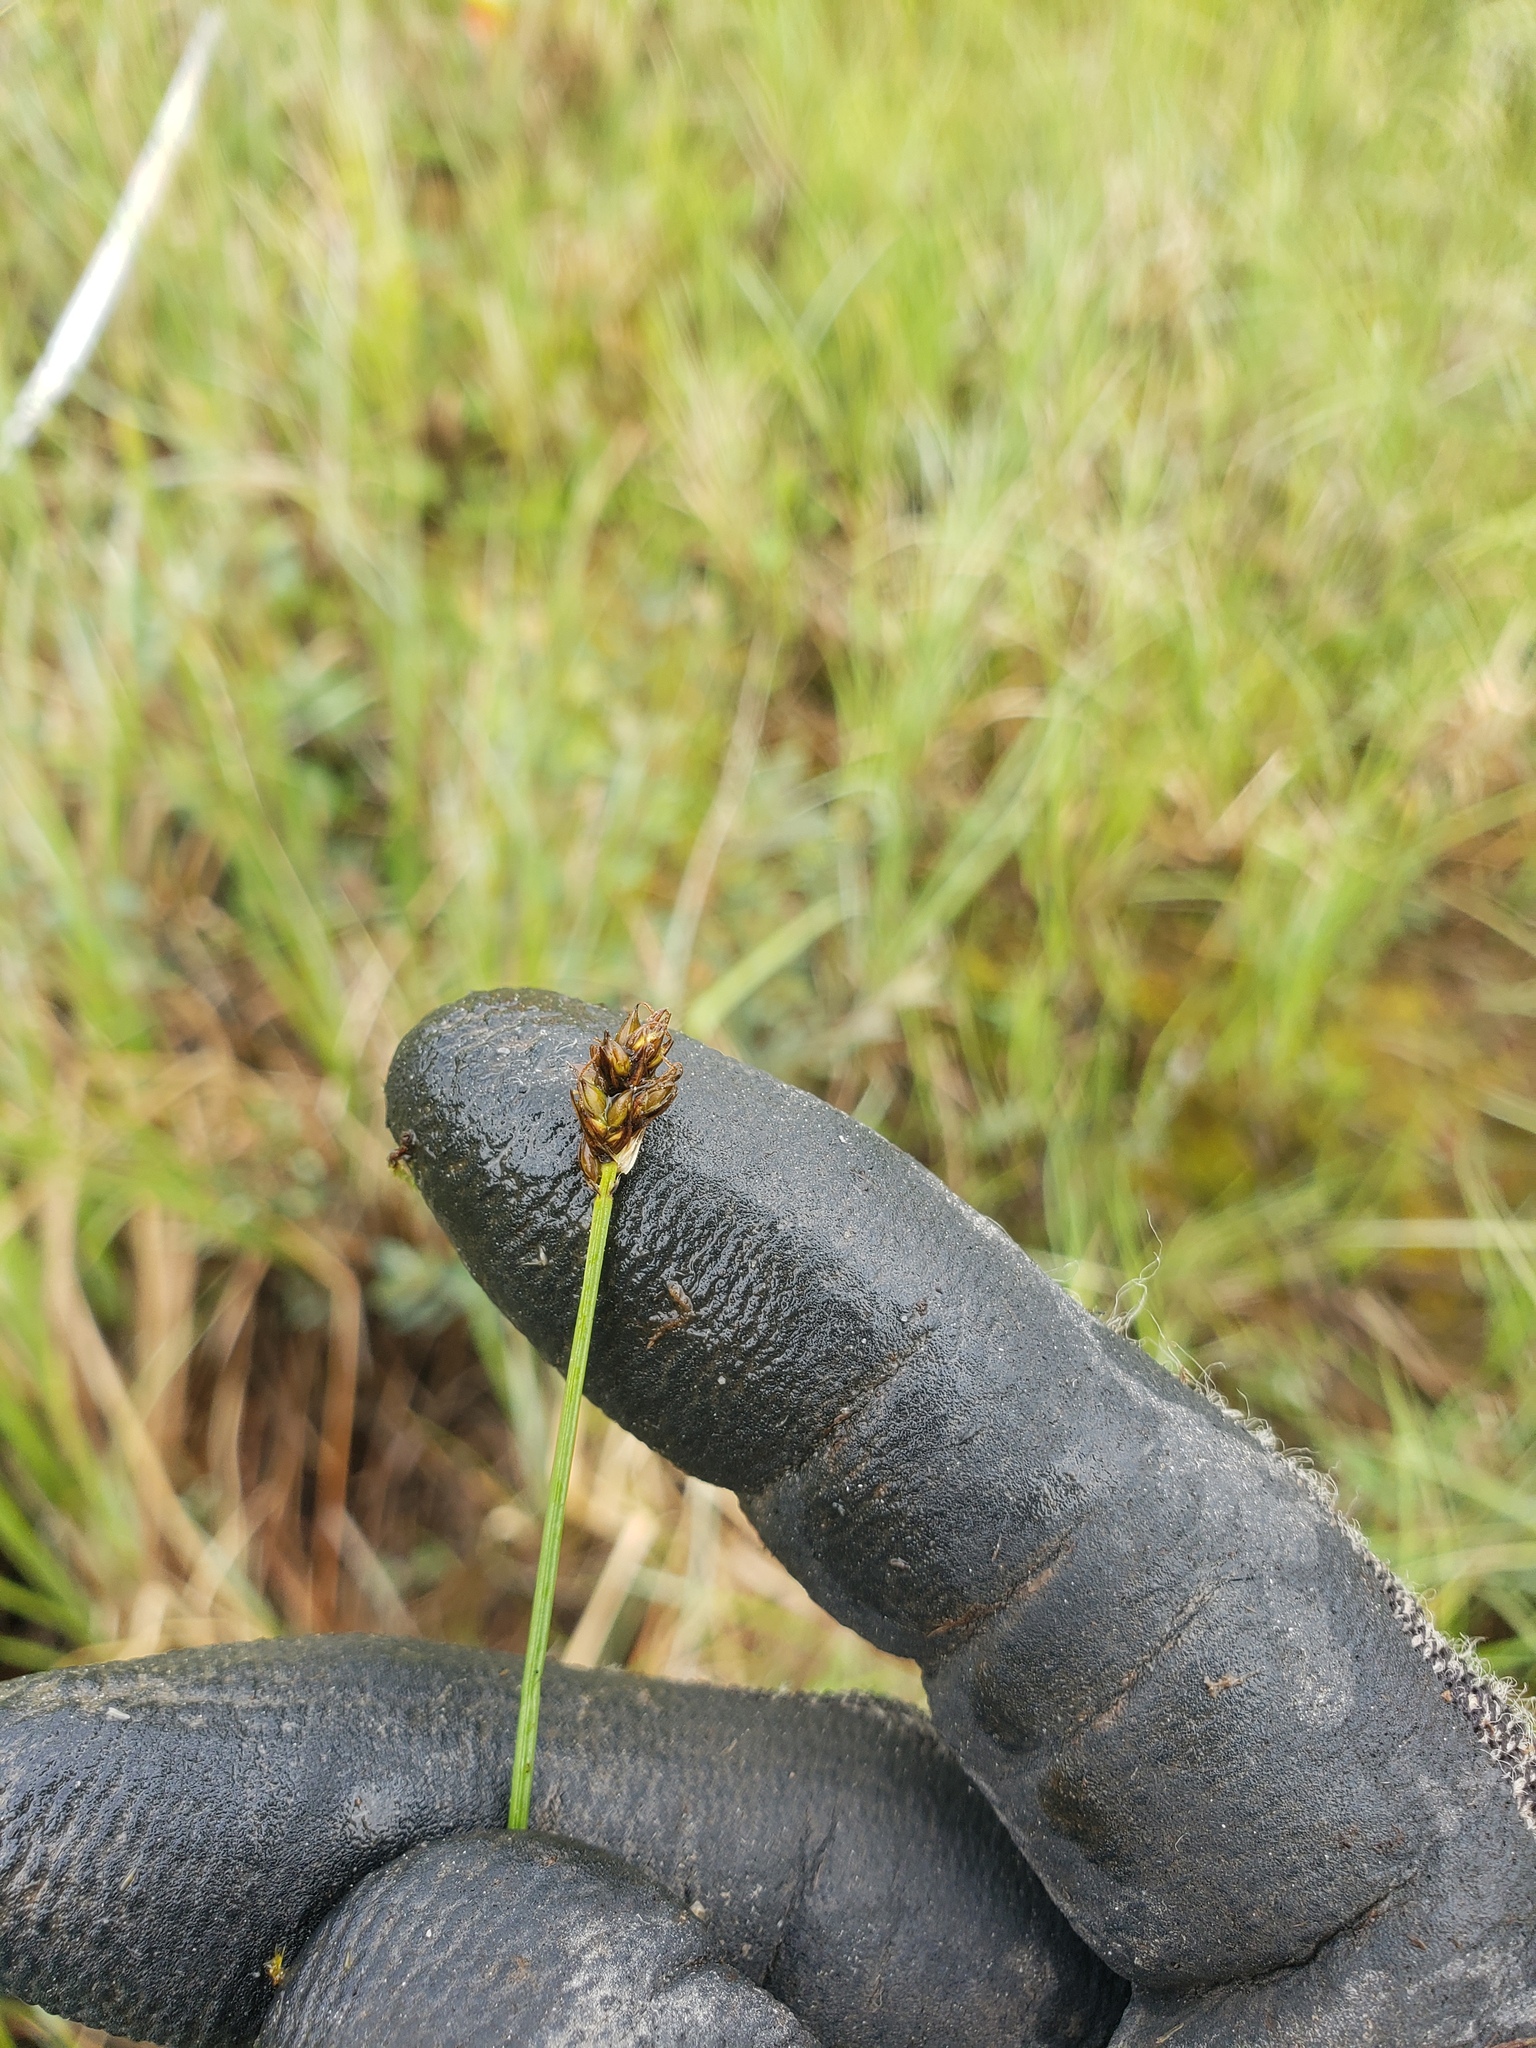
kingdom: Plantae
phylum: Tracheophyta
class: Liliopsida
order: Poales
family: Cyperaceae
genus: Carex
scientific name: Carex chordorrhiza
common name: String sedge
